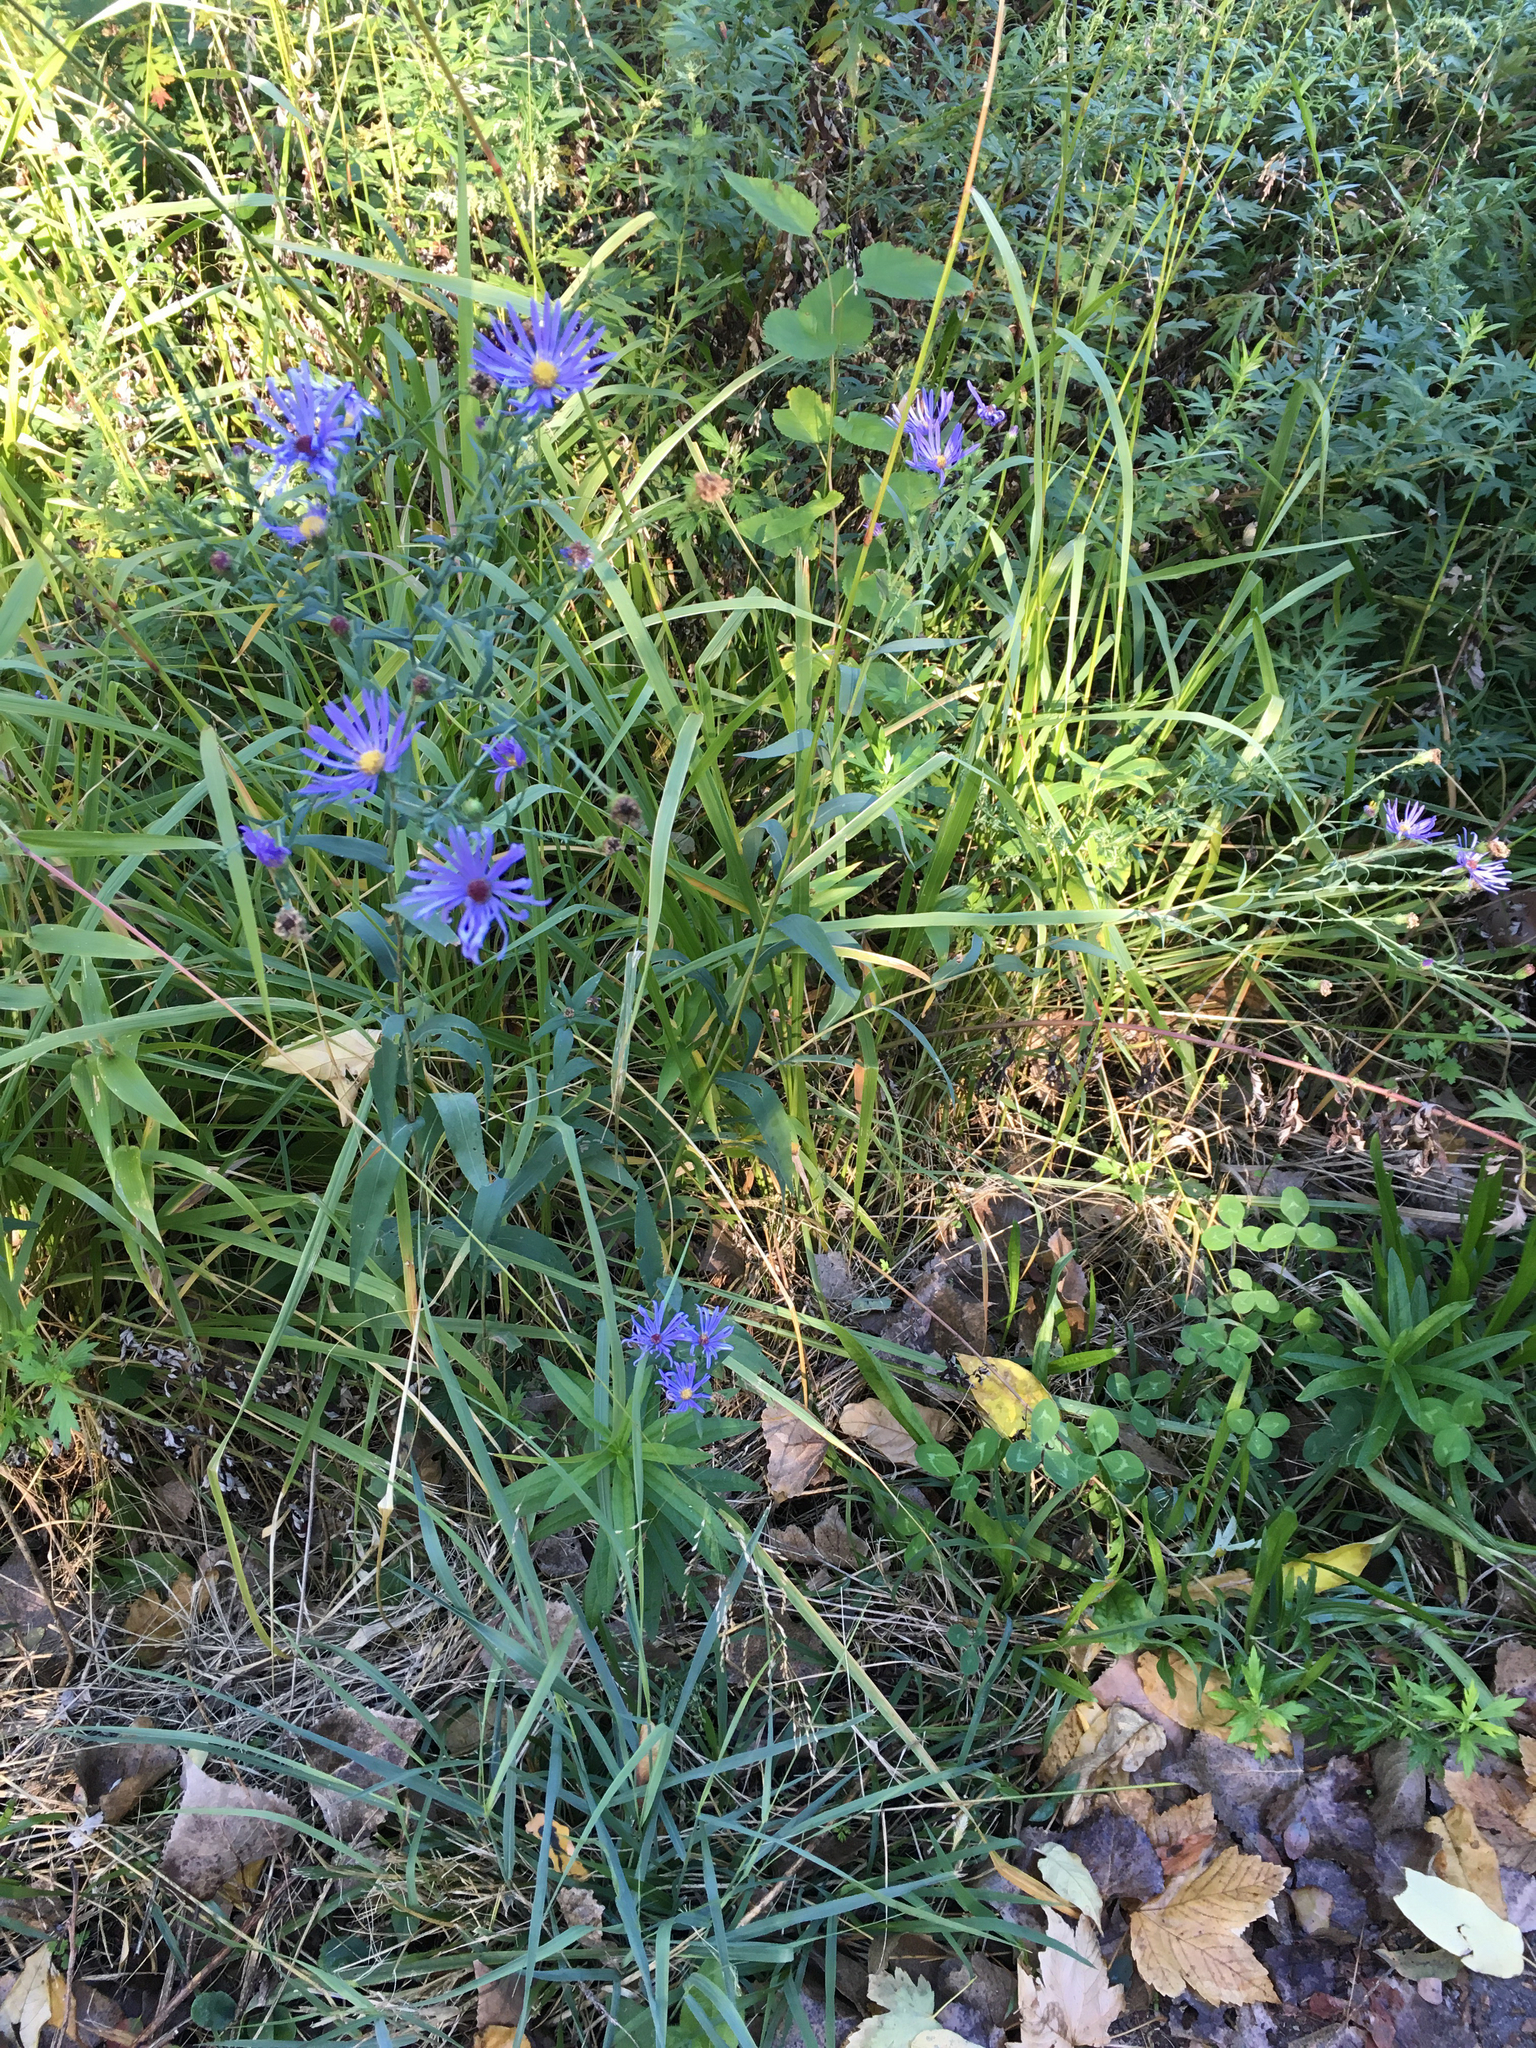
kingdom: Plantae
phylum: Tracheophyta
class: Magnoliopsida
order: Asterales
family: Asteraceae
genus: Symphyotrichum
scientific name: Symphyotrichum laeve
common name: Glaucous aster
